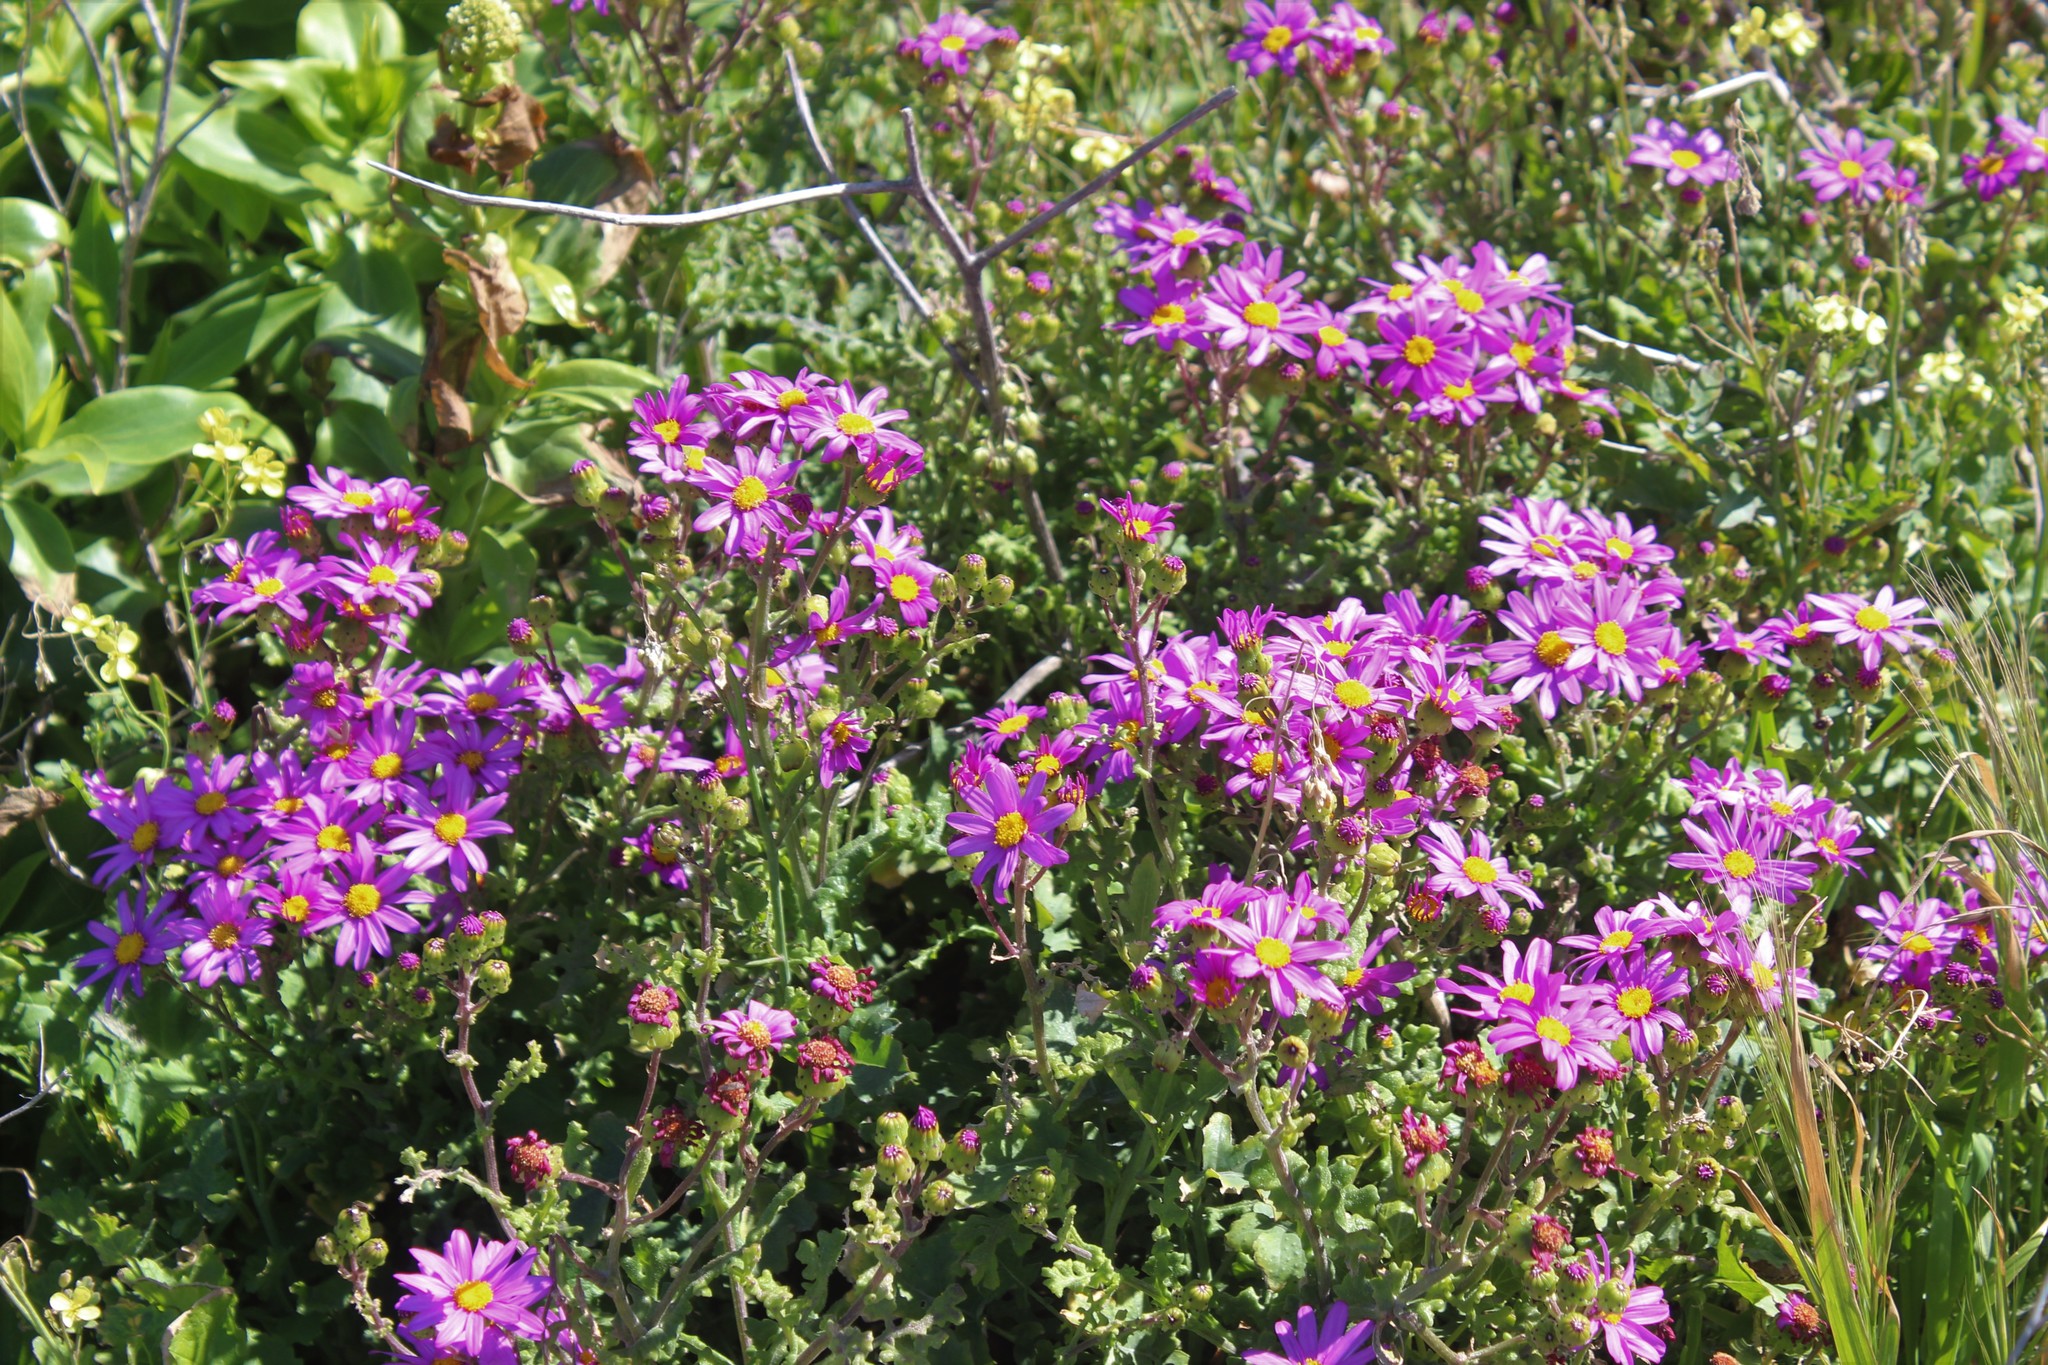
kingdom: Plantae
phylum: Tracheophyta
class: Magnoliopsida
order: Asterales
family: Asteraceae
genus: Senecio
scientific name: Senecio elegans
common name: Purple groundsel
